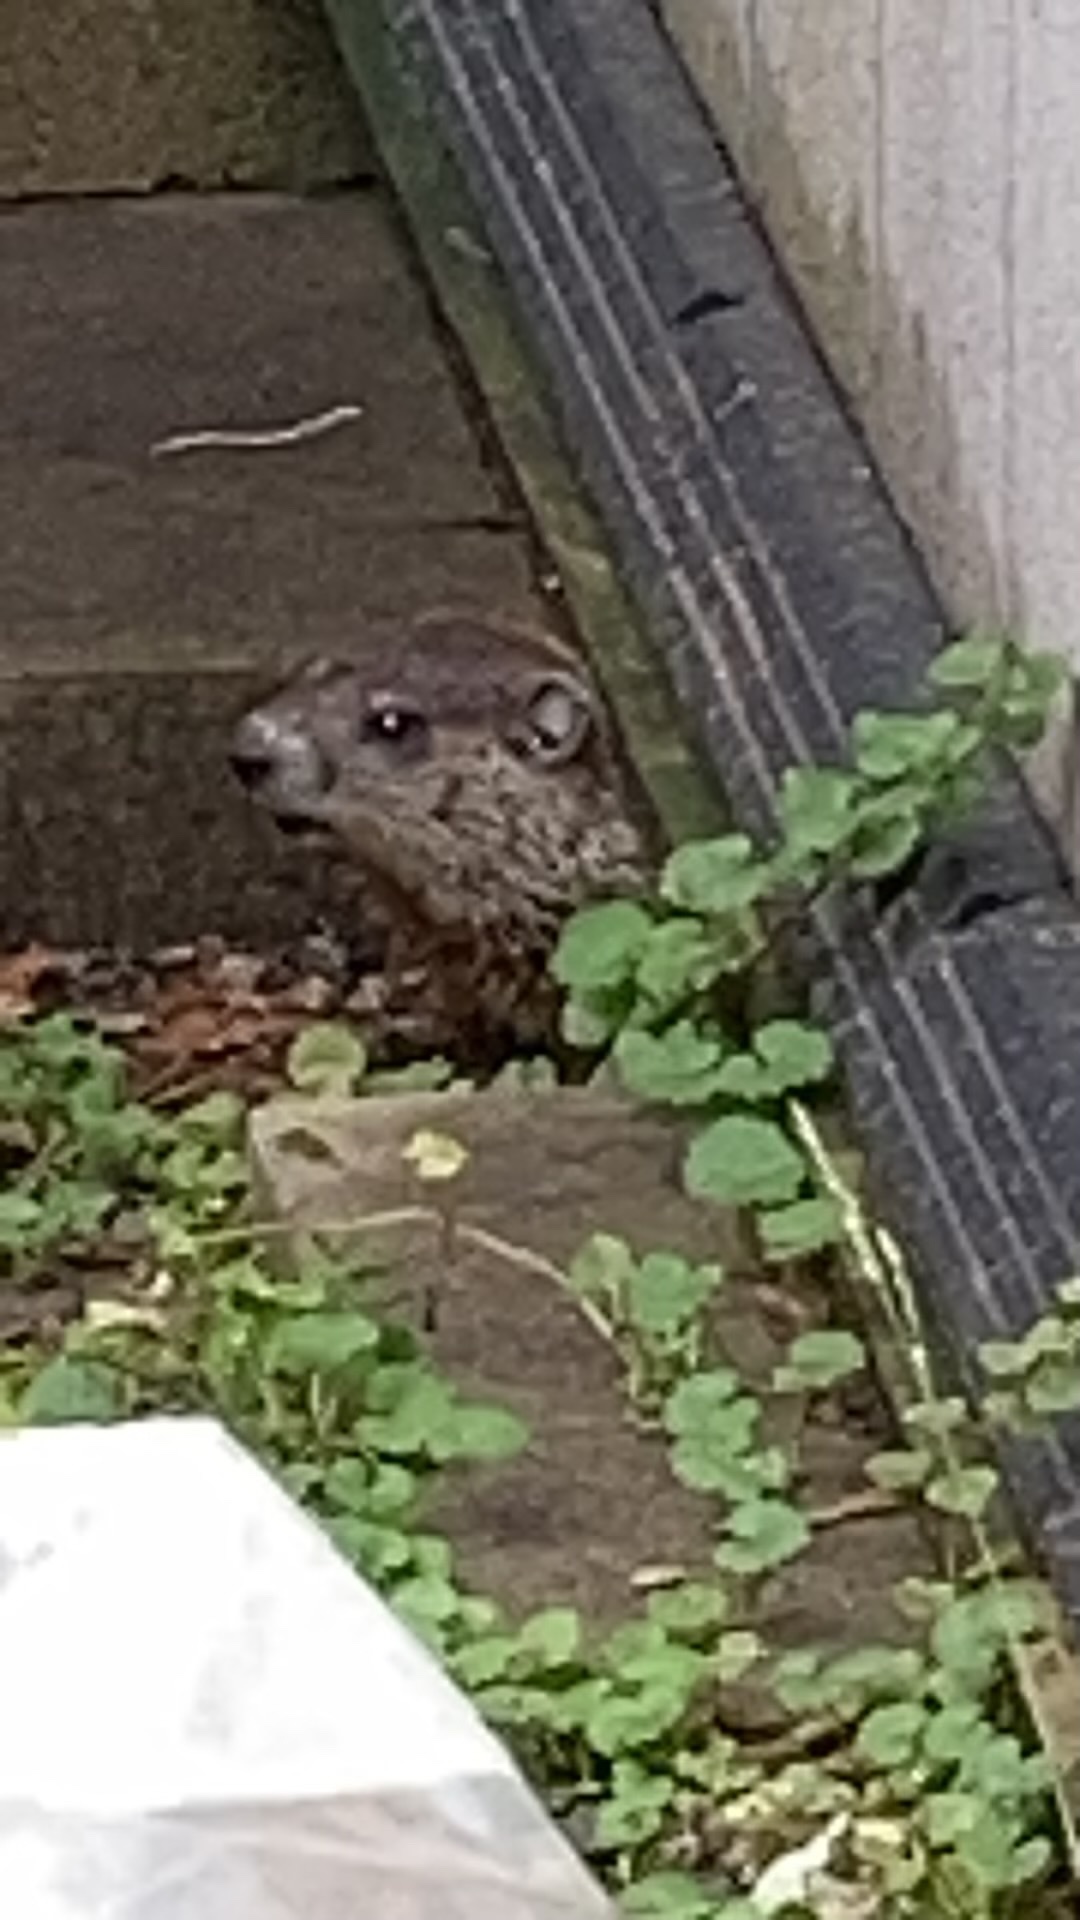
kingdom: Animalia
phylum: Chordata
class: Mammalia
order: Rodentia
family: Sciuridae
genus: Marmota
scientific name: Marmota monax
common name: Groundhog
